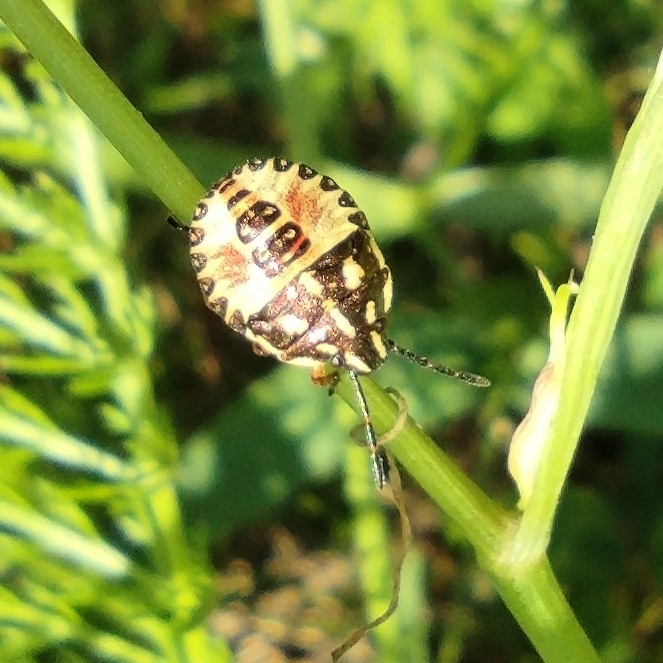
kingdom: Animalia
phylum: Arthropoda
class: Insecta
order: Hemiptera
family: Pentatomidae
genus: Carpocoris
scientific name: Carpocoris purpureipennis
